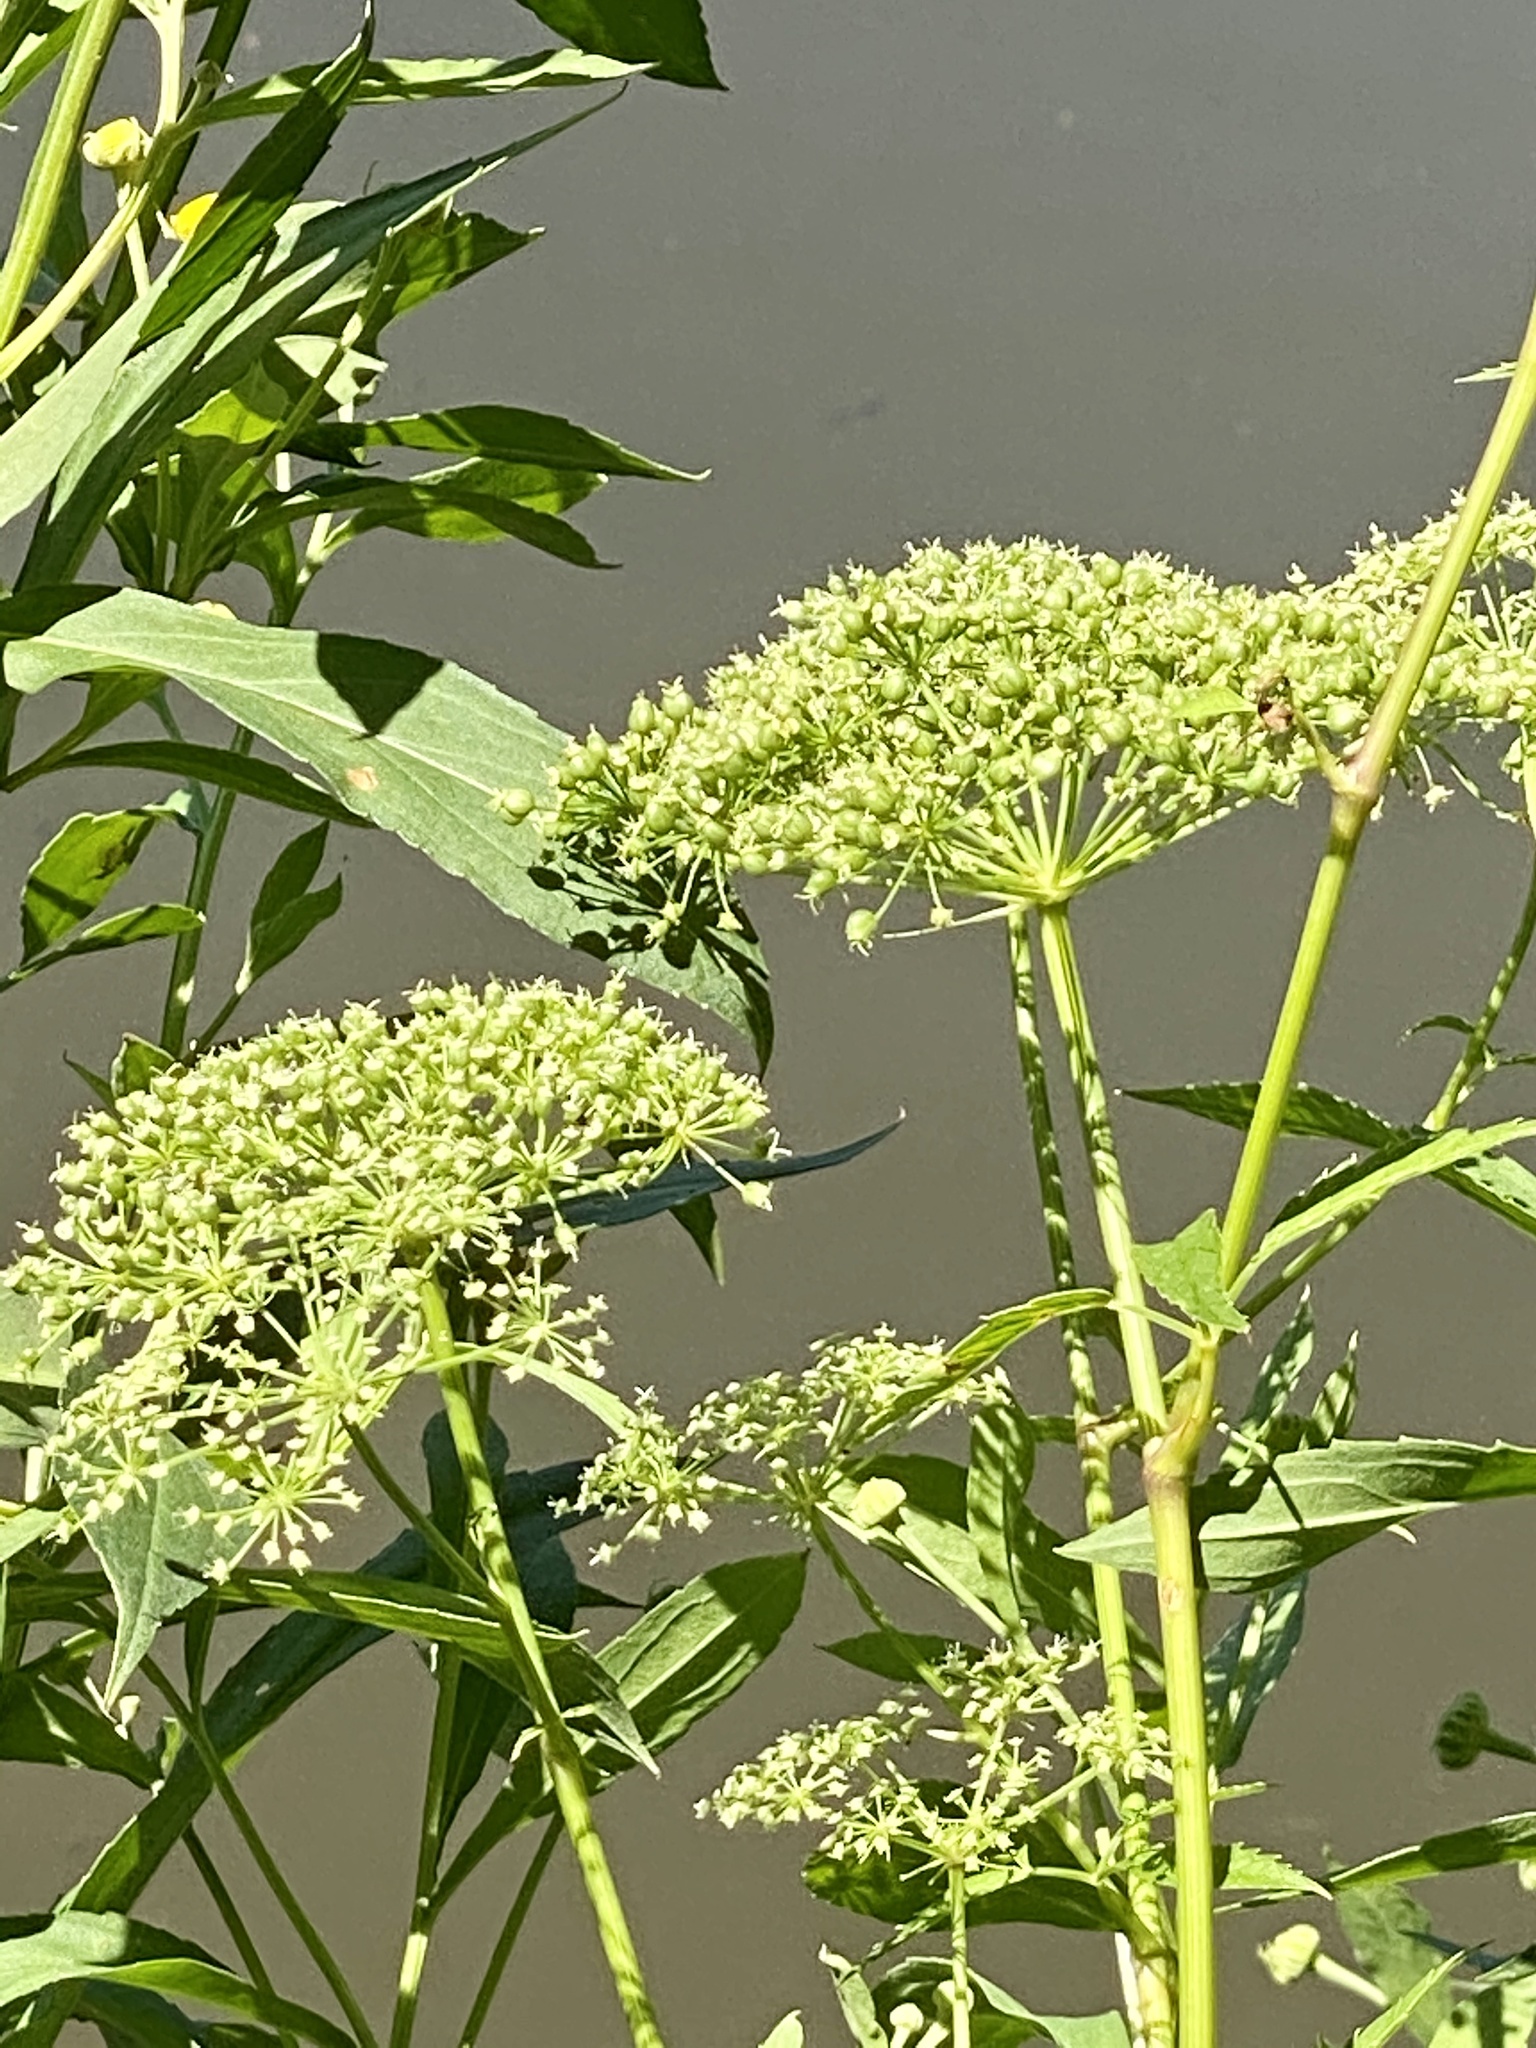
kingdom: Plantae
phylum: Tracheophyta
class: Magnoliopsida
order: Apiales
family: Apiaceae
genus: Cicuta
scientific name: Cicuta maculata
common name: Spotted cowbane
